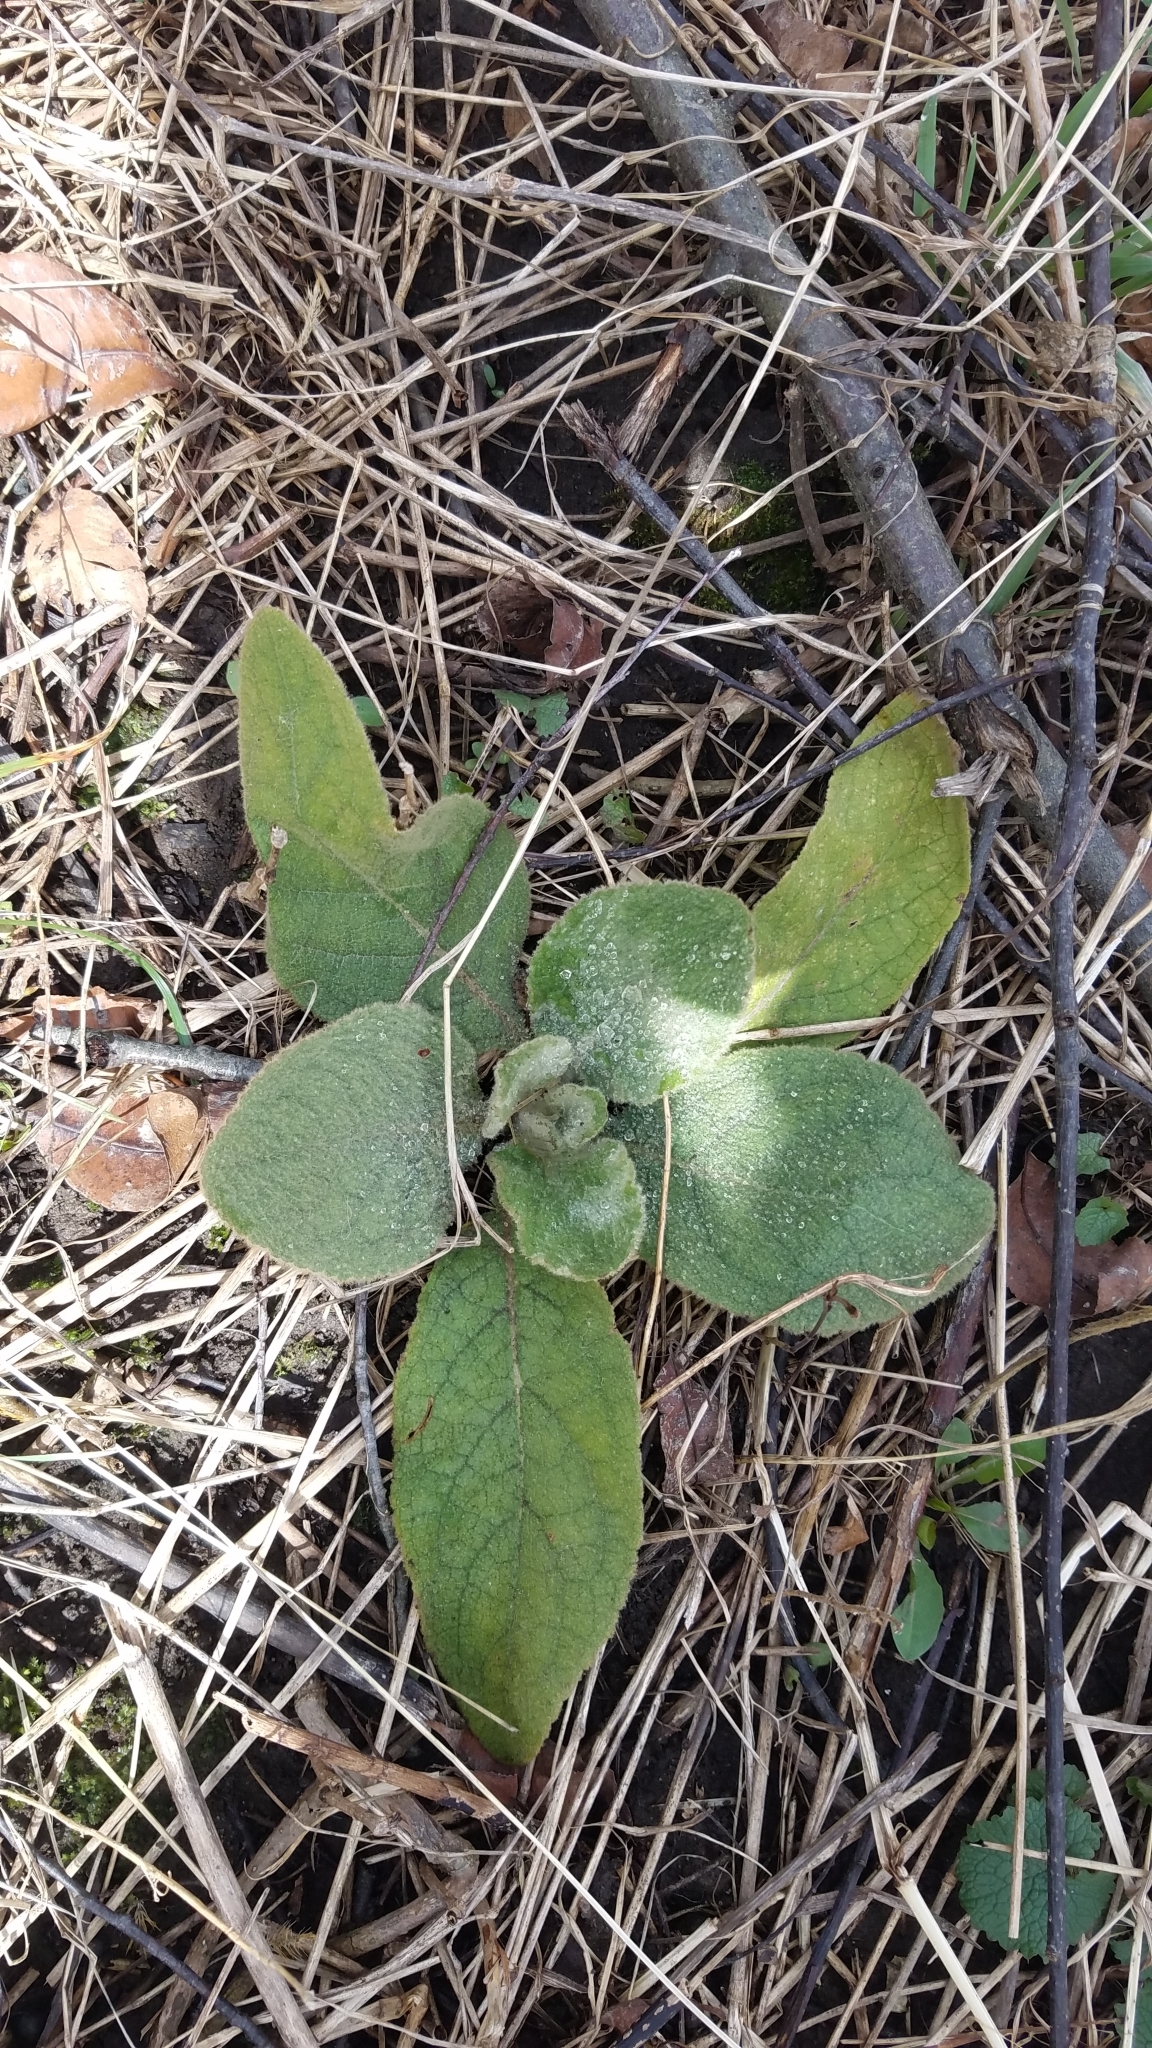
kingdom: Plantae
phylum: Tracheophyta
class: Magnoliopsida
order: Lamiales
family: Scrophulariaceae
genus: Verbascum
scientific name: Verbascum thapsus
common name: Common mullein
